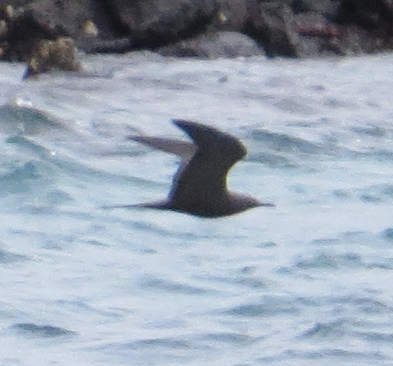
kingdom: Animalia
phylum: Chordata
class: Aves
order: Charadriiformes
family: Laridae
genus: Anous
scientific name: Anous stolidus
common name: Brown noddy
